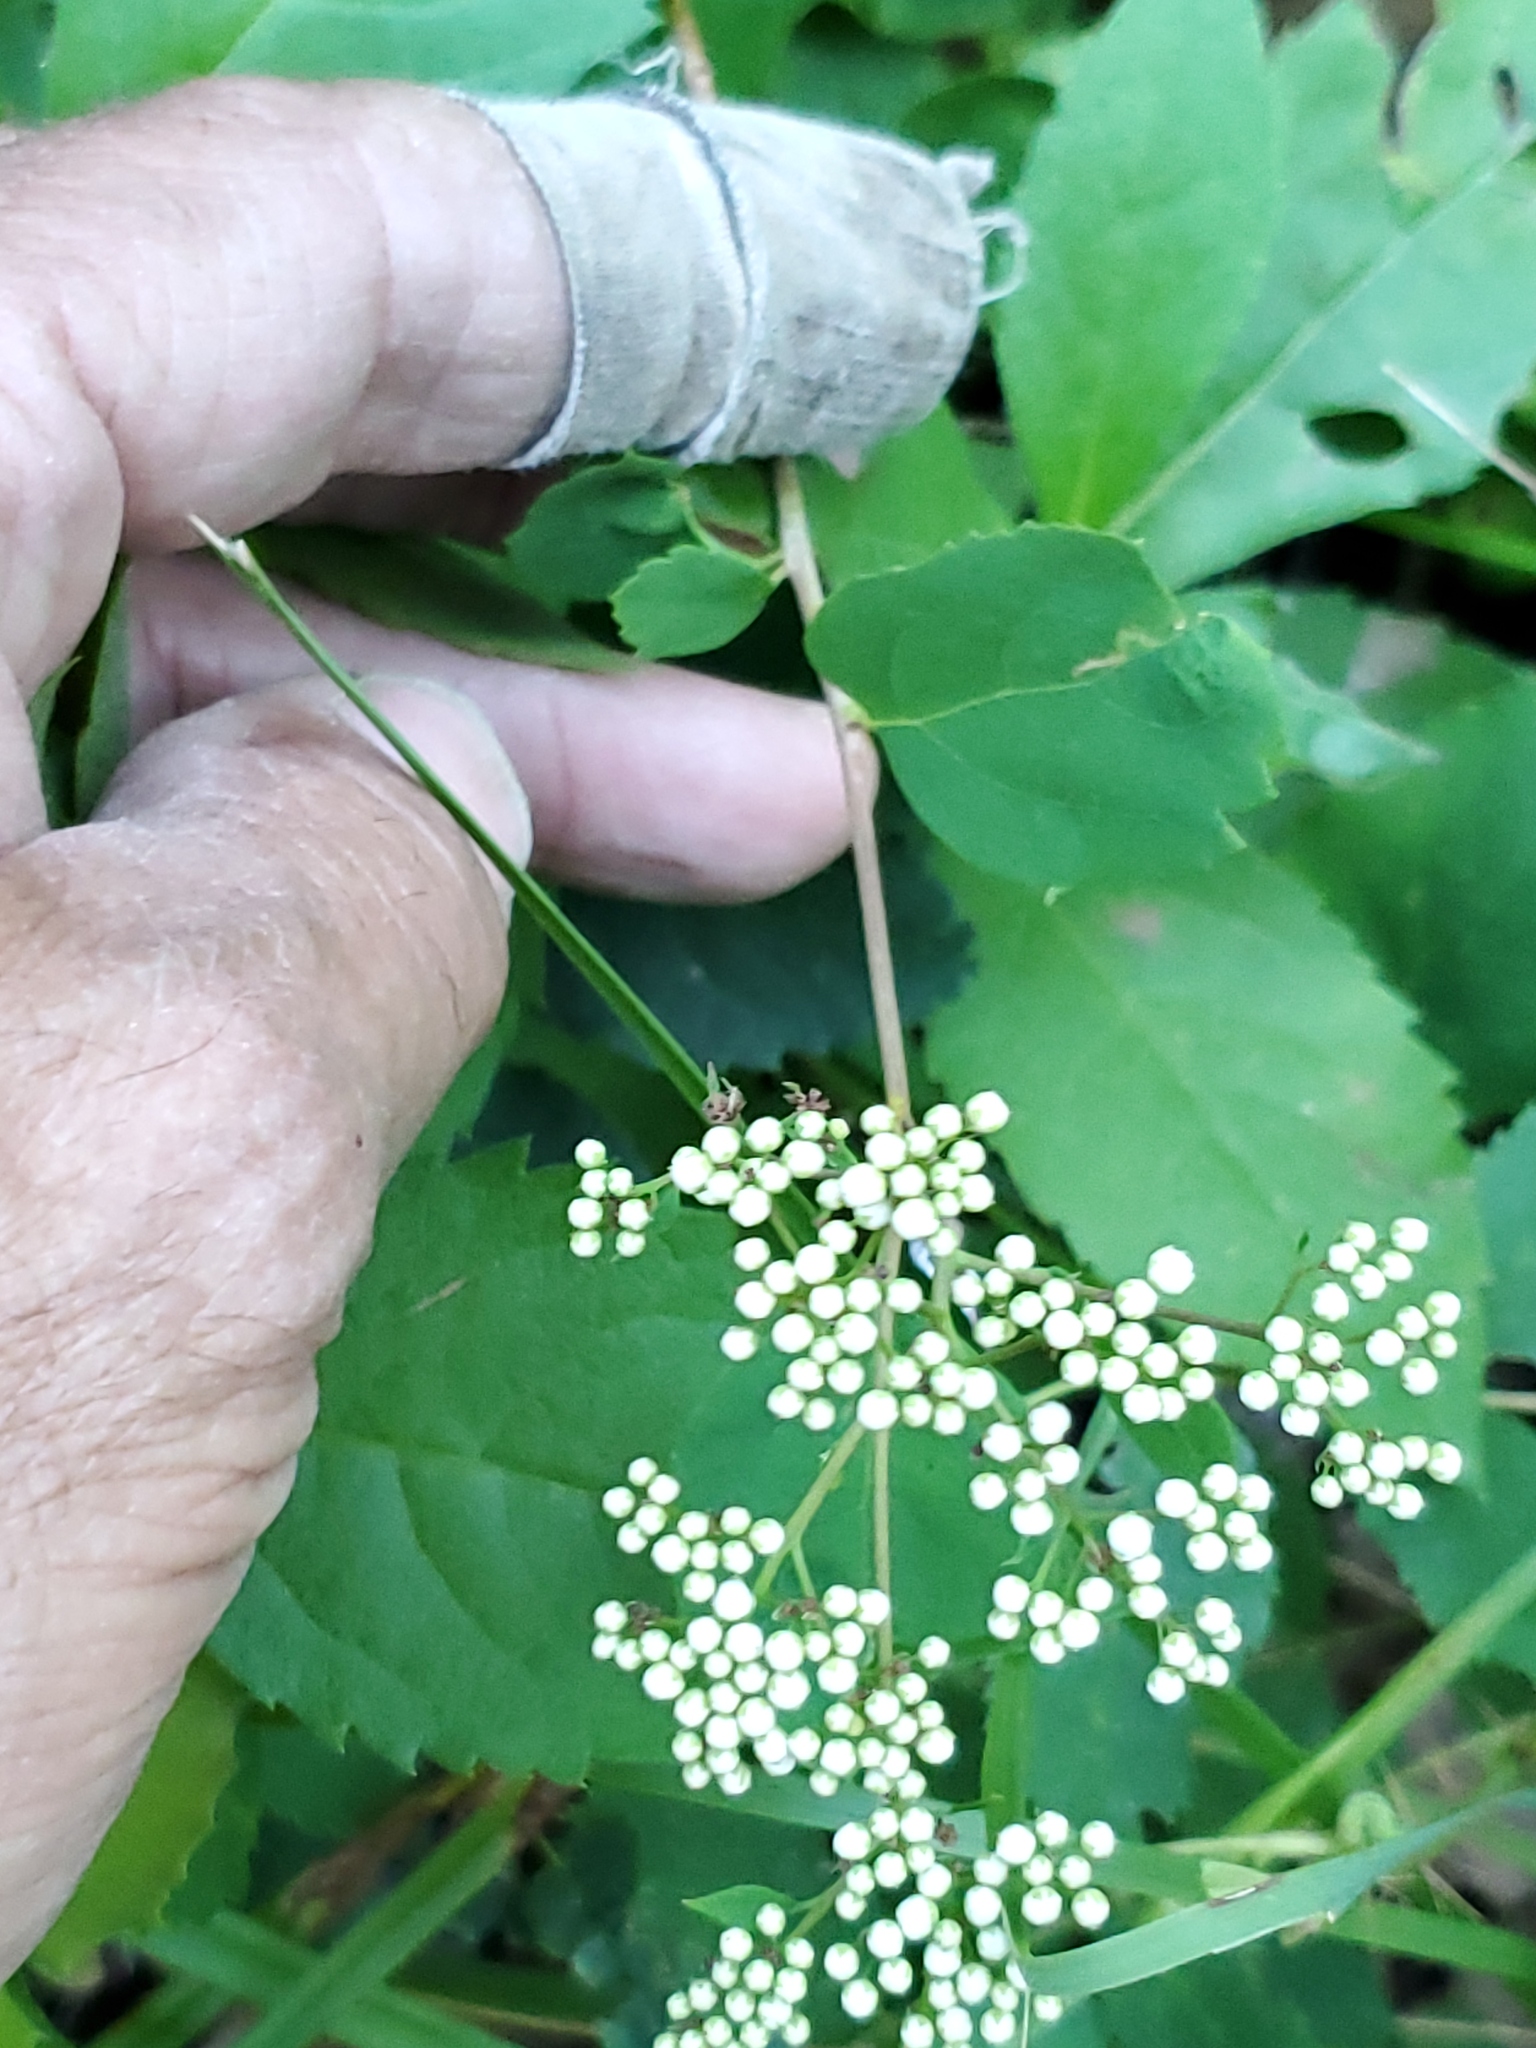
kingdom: Plantae
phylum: Tracheophyta
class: Magnoliopsida
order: Rosales
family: Rosaceae
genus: Spiraea
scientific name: Spiraea lucida
